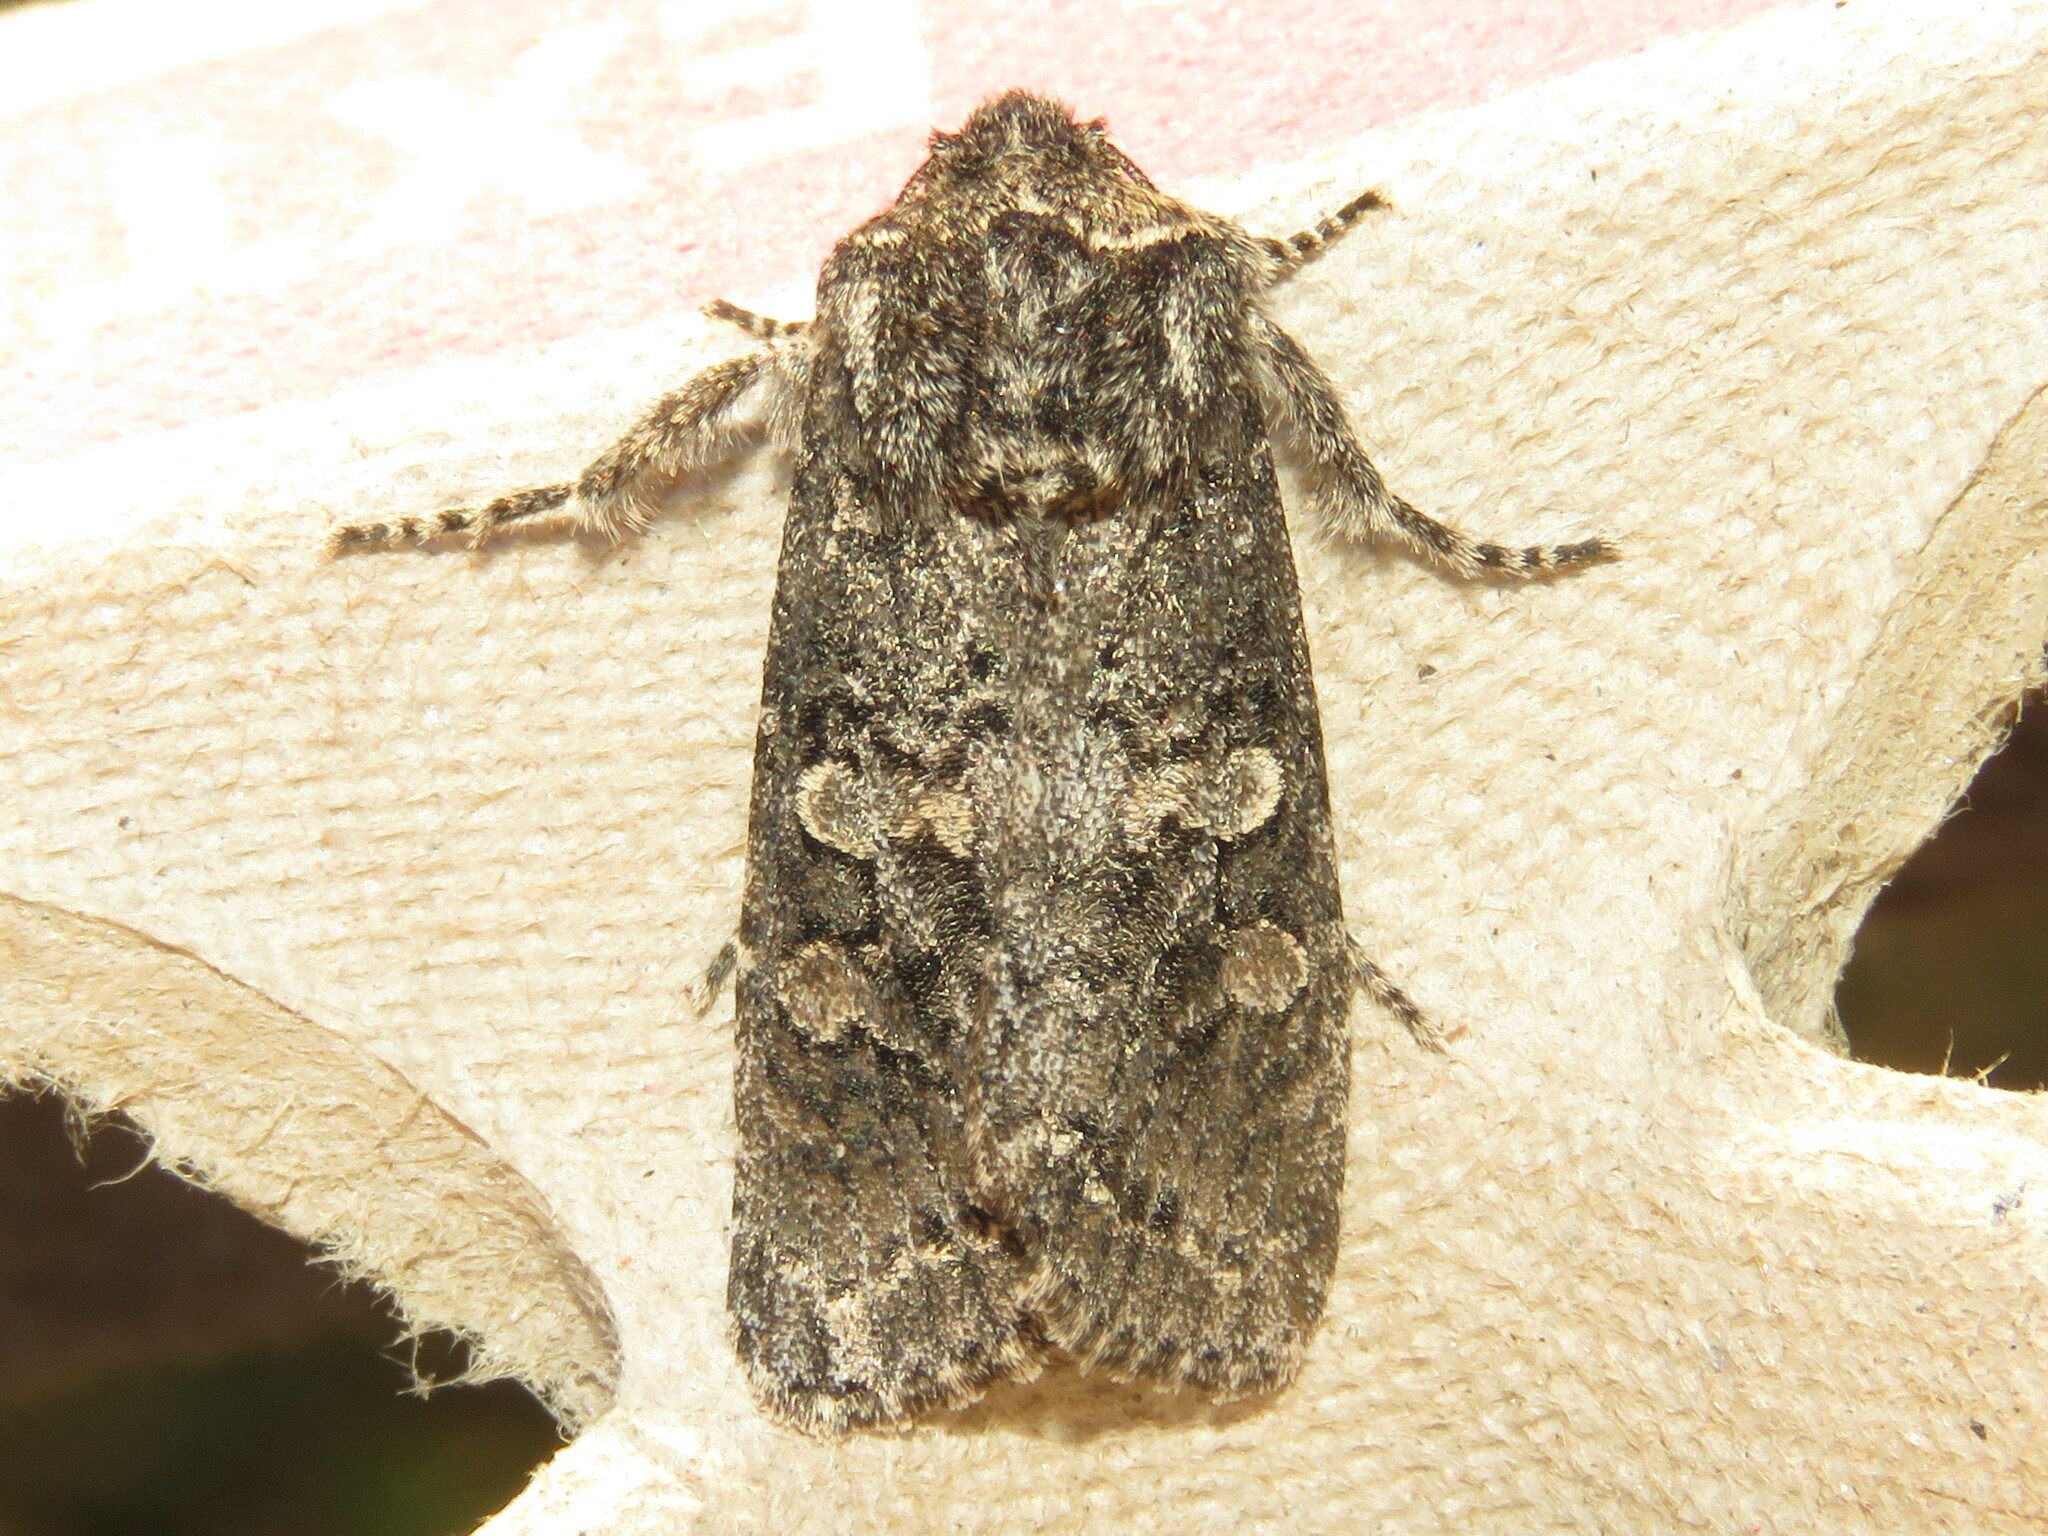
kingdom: Animalia
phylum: Arthropoda
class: Insecta
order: Lepidoptera
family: Noctuidae
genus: Egira
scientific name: Egira dolosa
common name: Lined black aspen cat.
